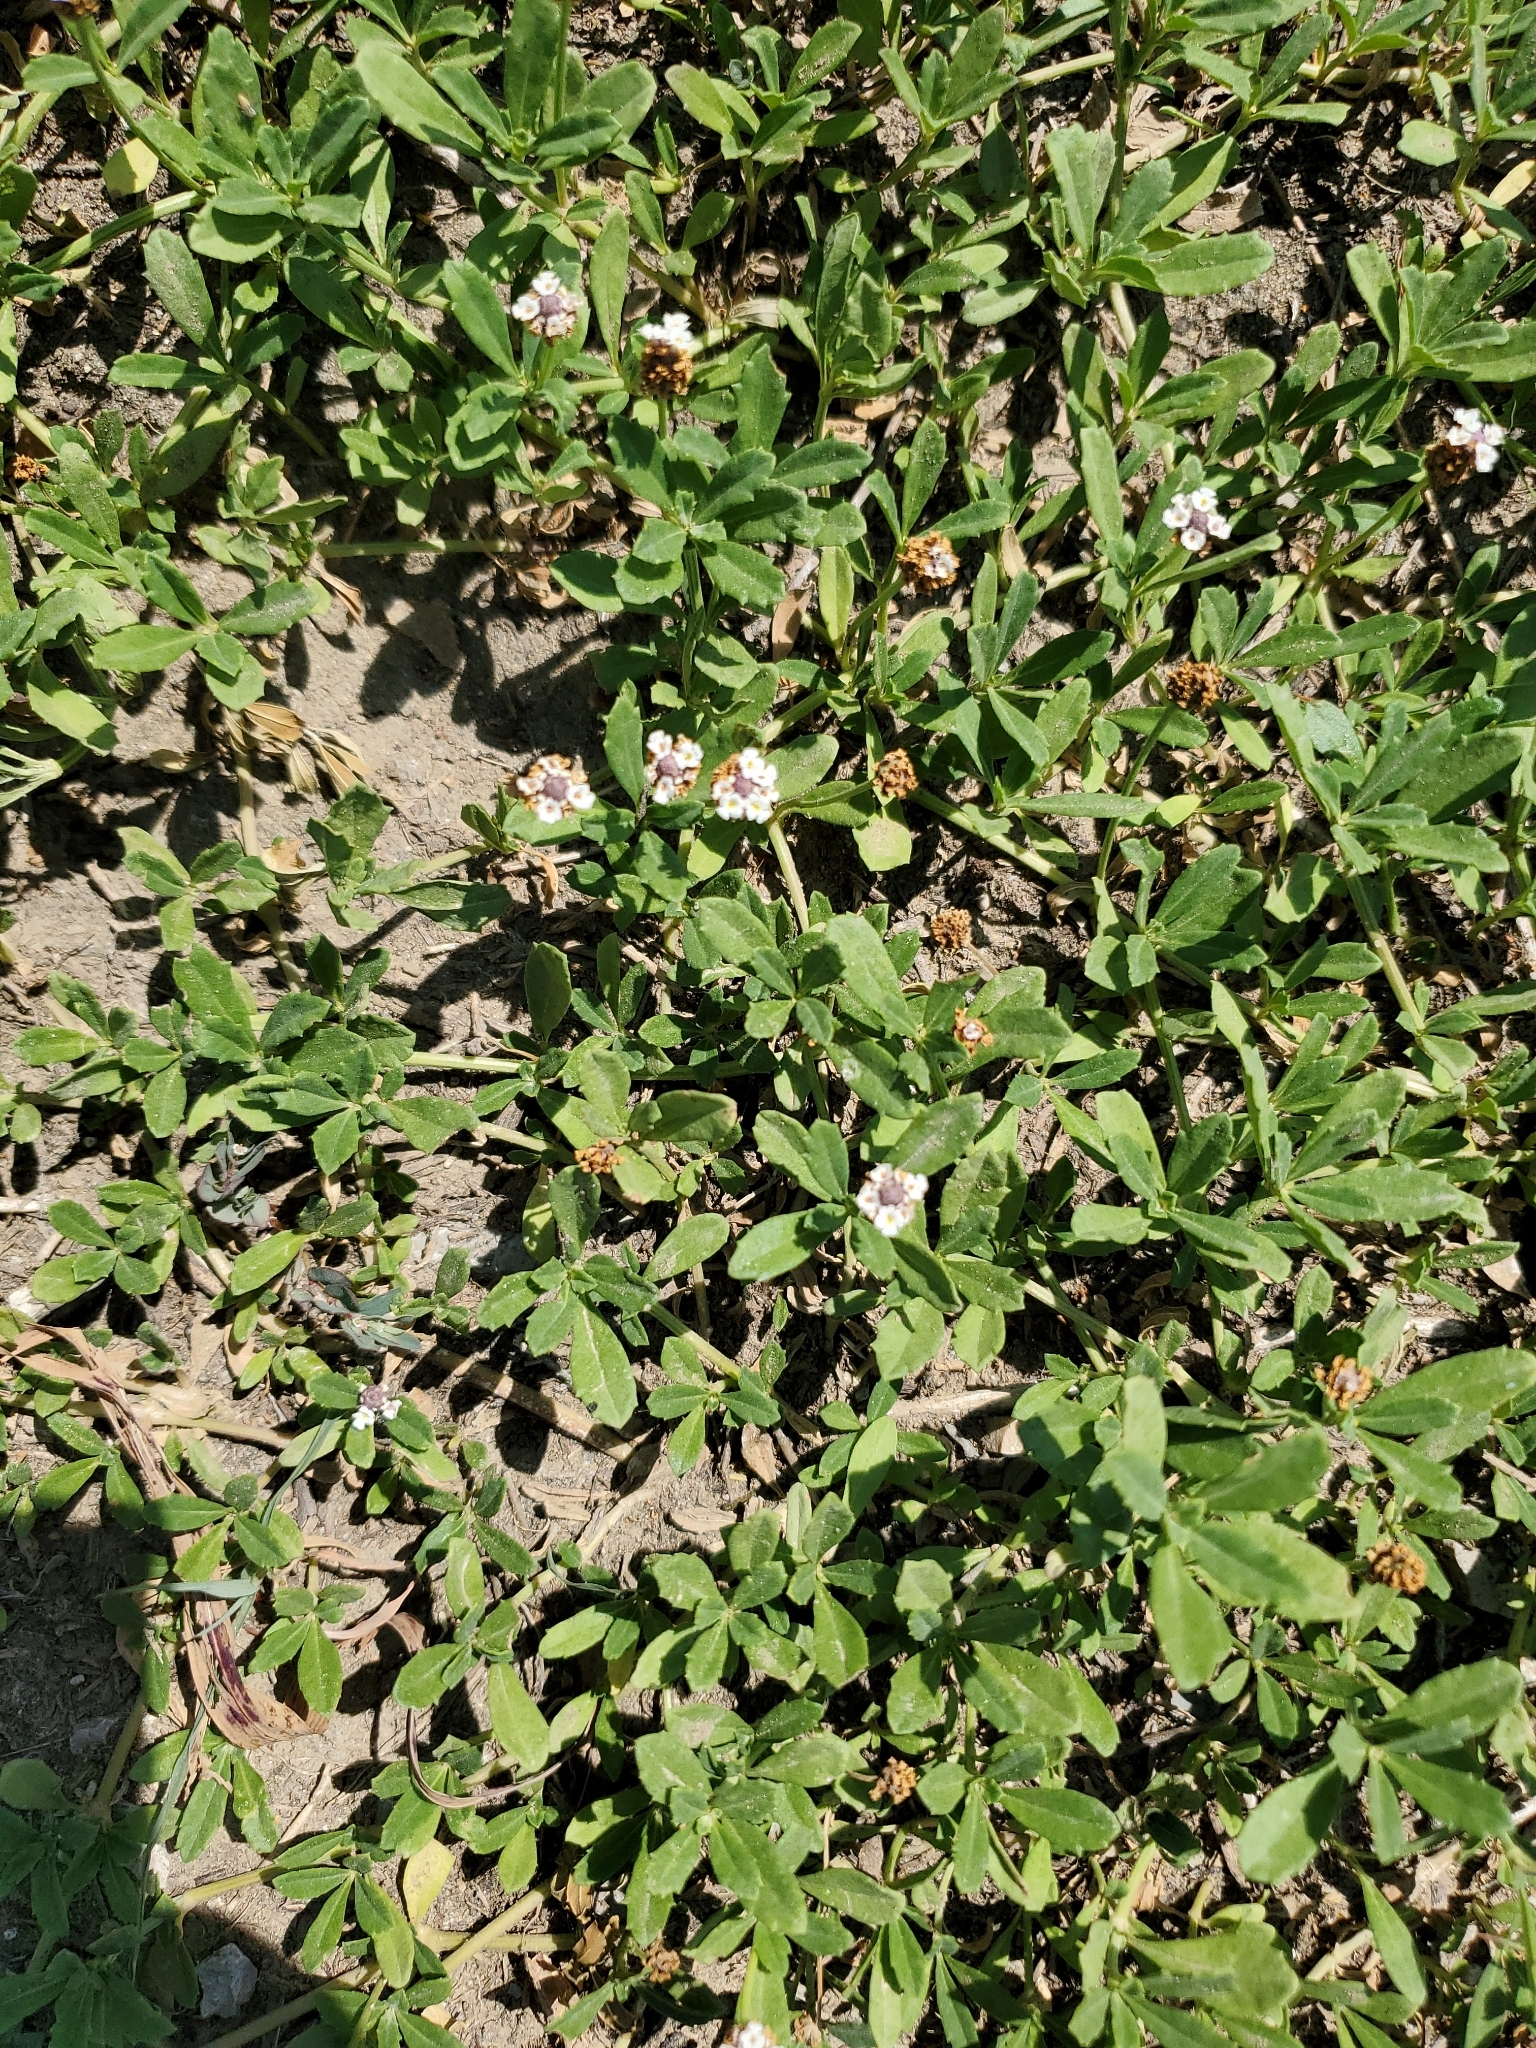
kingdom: Plantae
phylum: Tracheophyta
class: Magnoliopsida
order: Lamiales
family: Verbenaceae
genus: Phyla
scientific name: Phyla nodiflora
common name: Frogfruit
